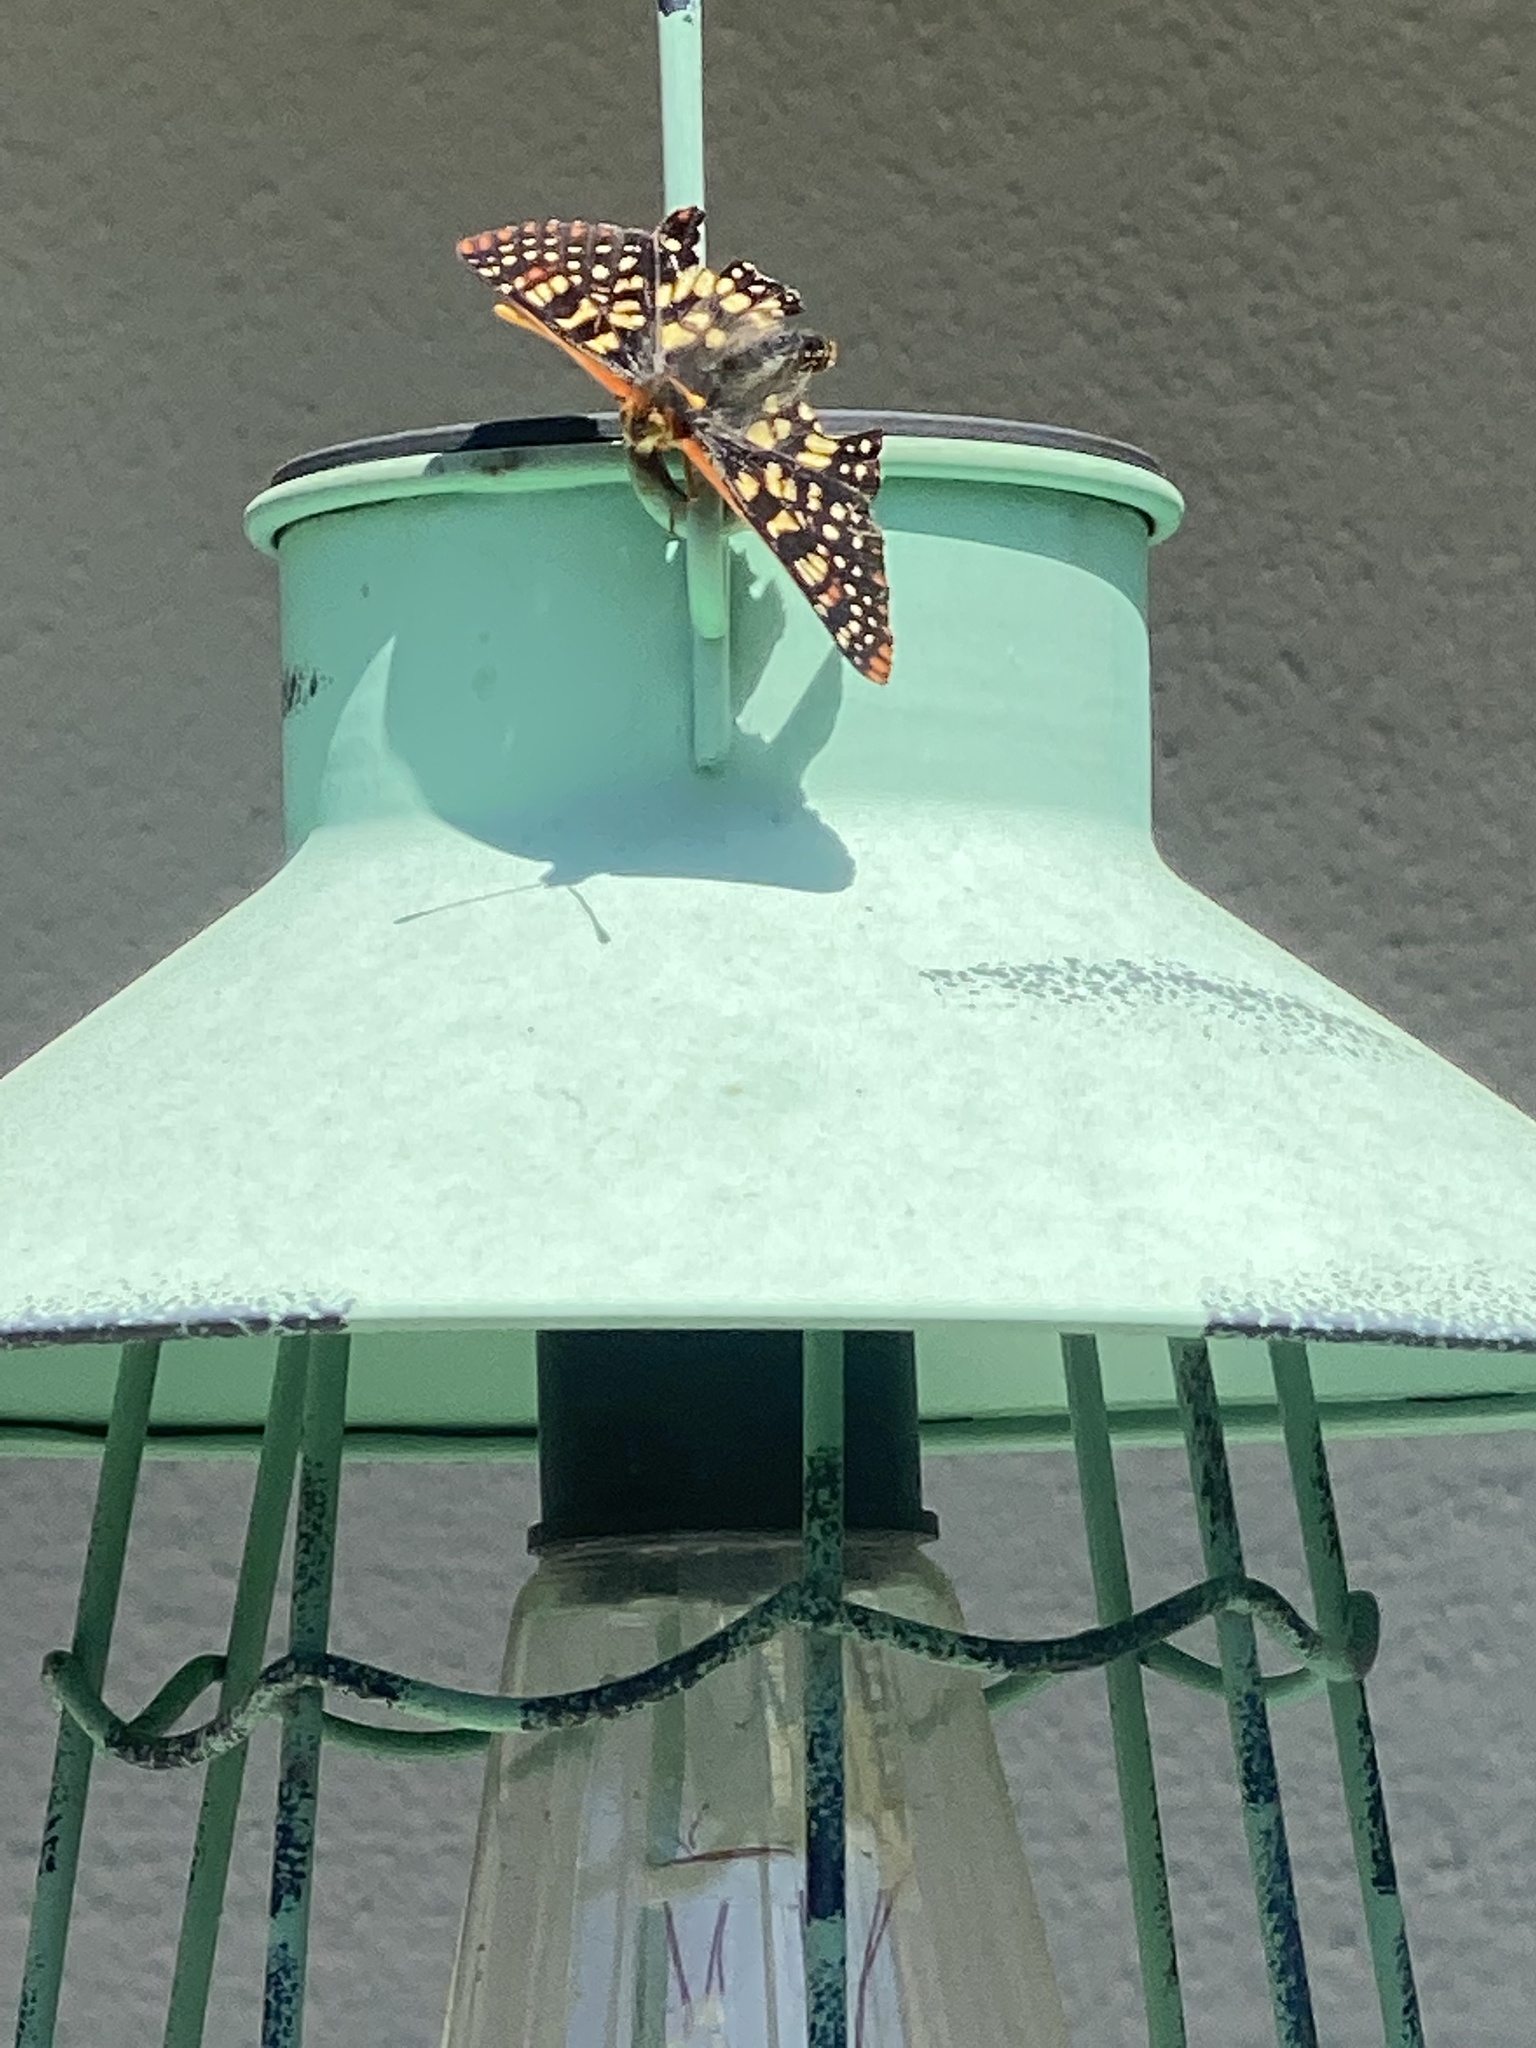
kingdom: Animalia
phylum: Arthropoda
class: Insecta
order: Lepidoptera
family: Nymphalidae
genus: Occidryas
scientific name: Occidryas chalcedona
